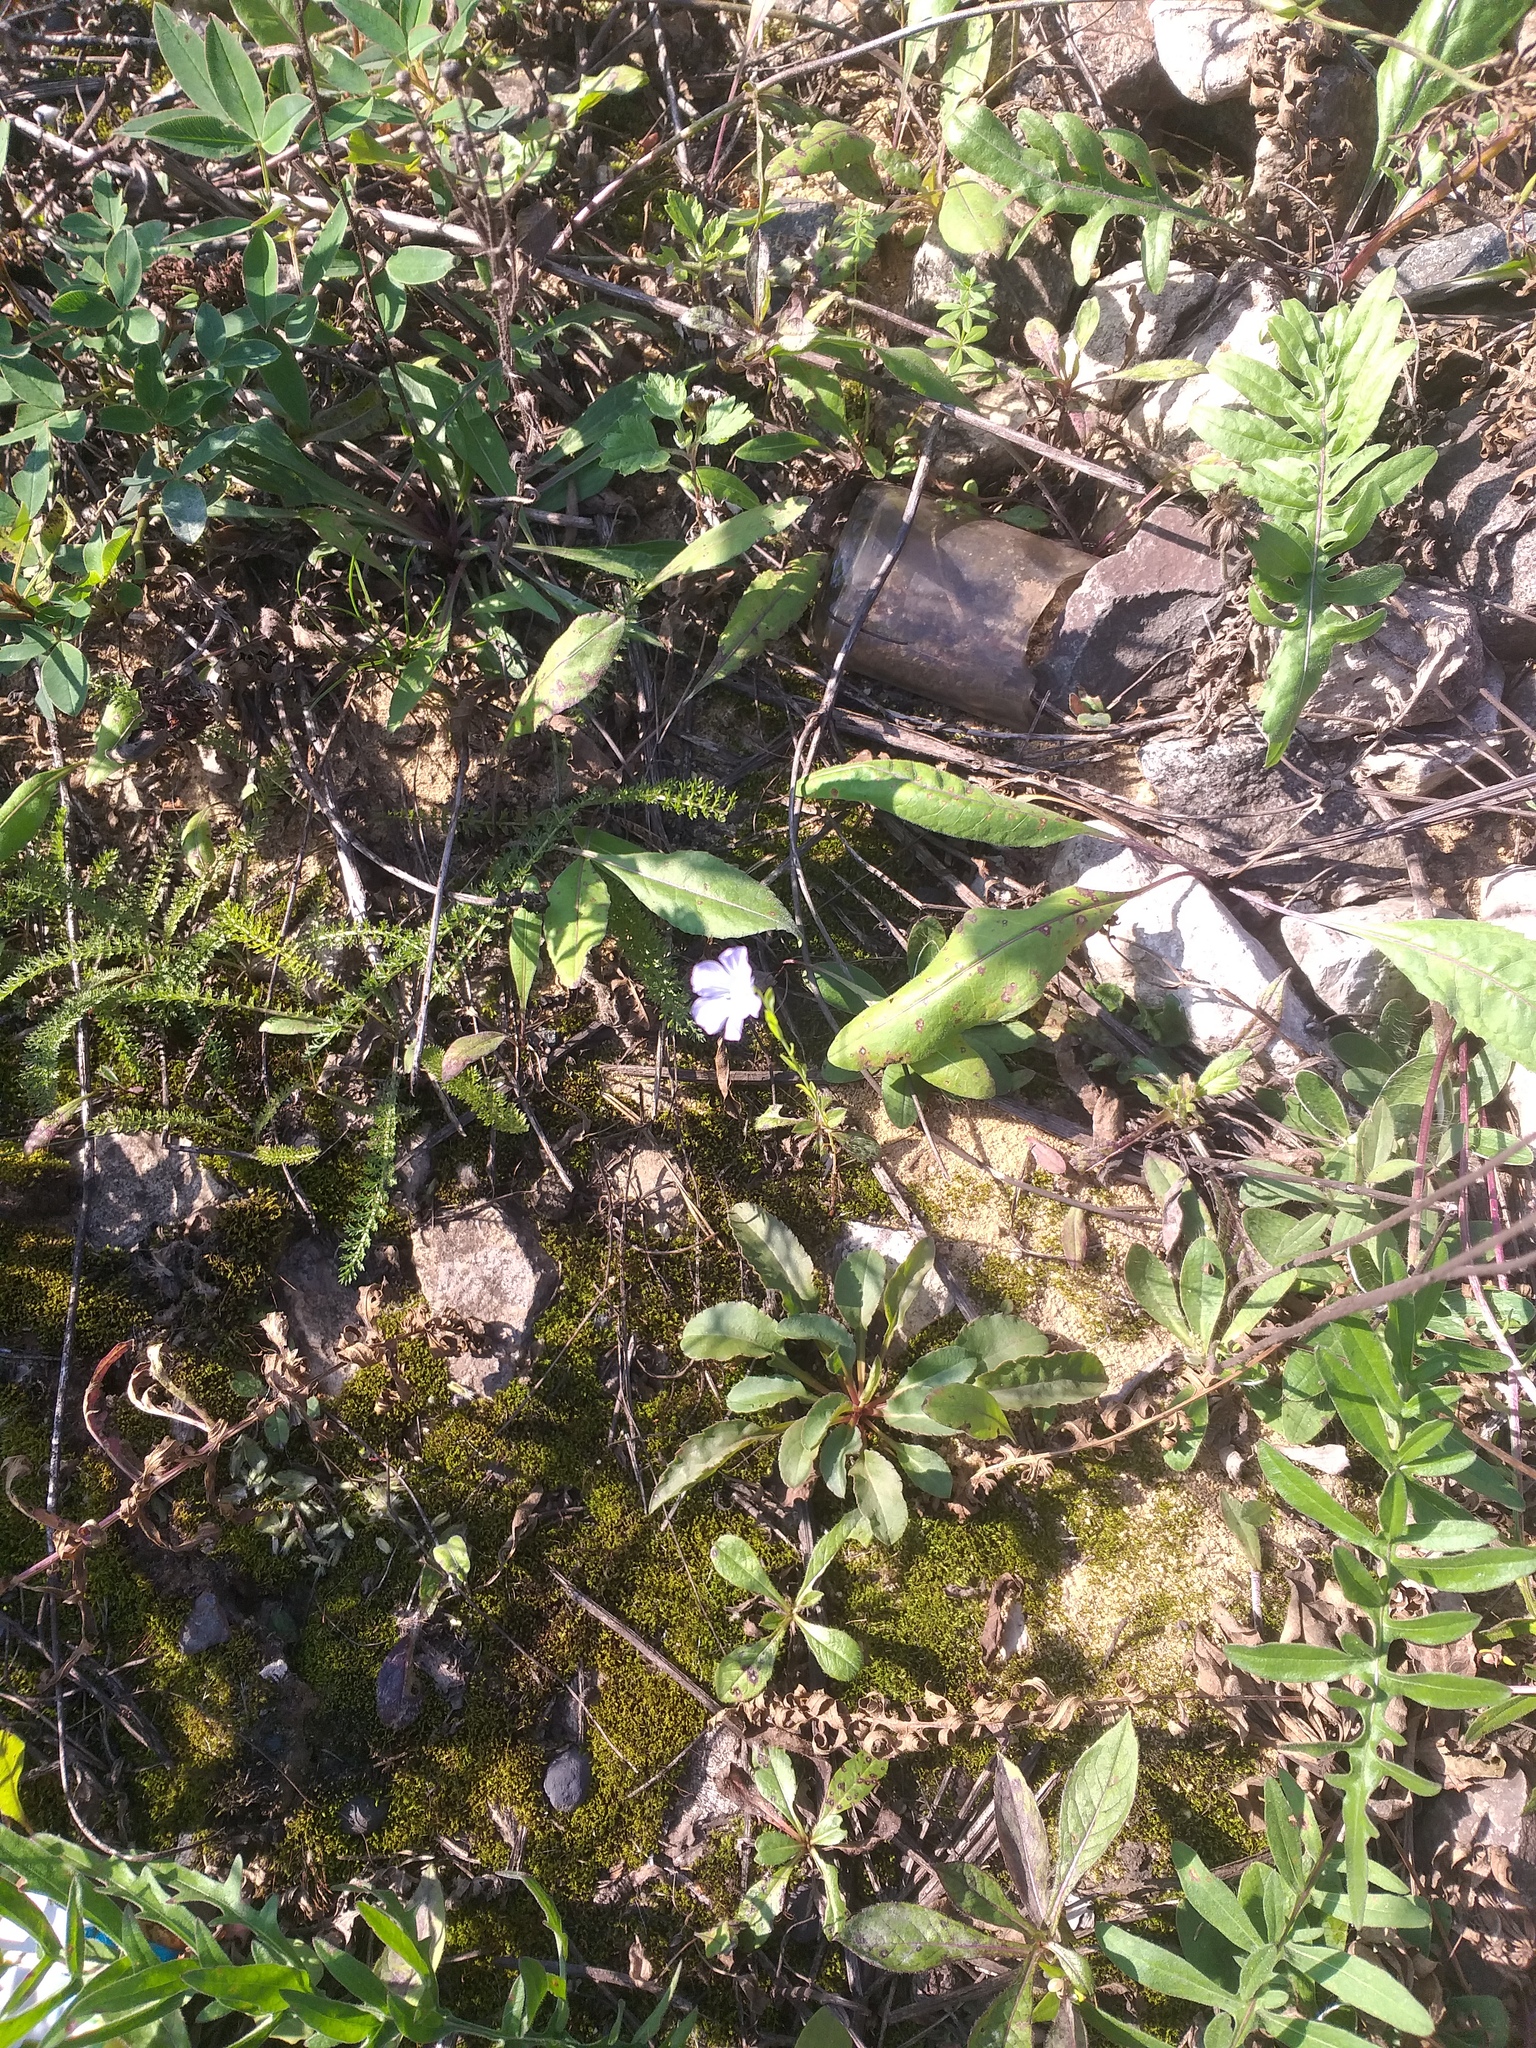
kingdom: Plantae
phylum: Tracheophyta
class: Magnoliopsida
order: Malpighiales
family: Linaceae
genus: Linum
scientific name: Linum usitatissimum
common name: Flax
